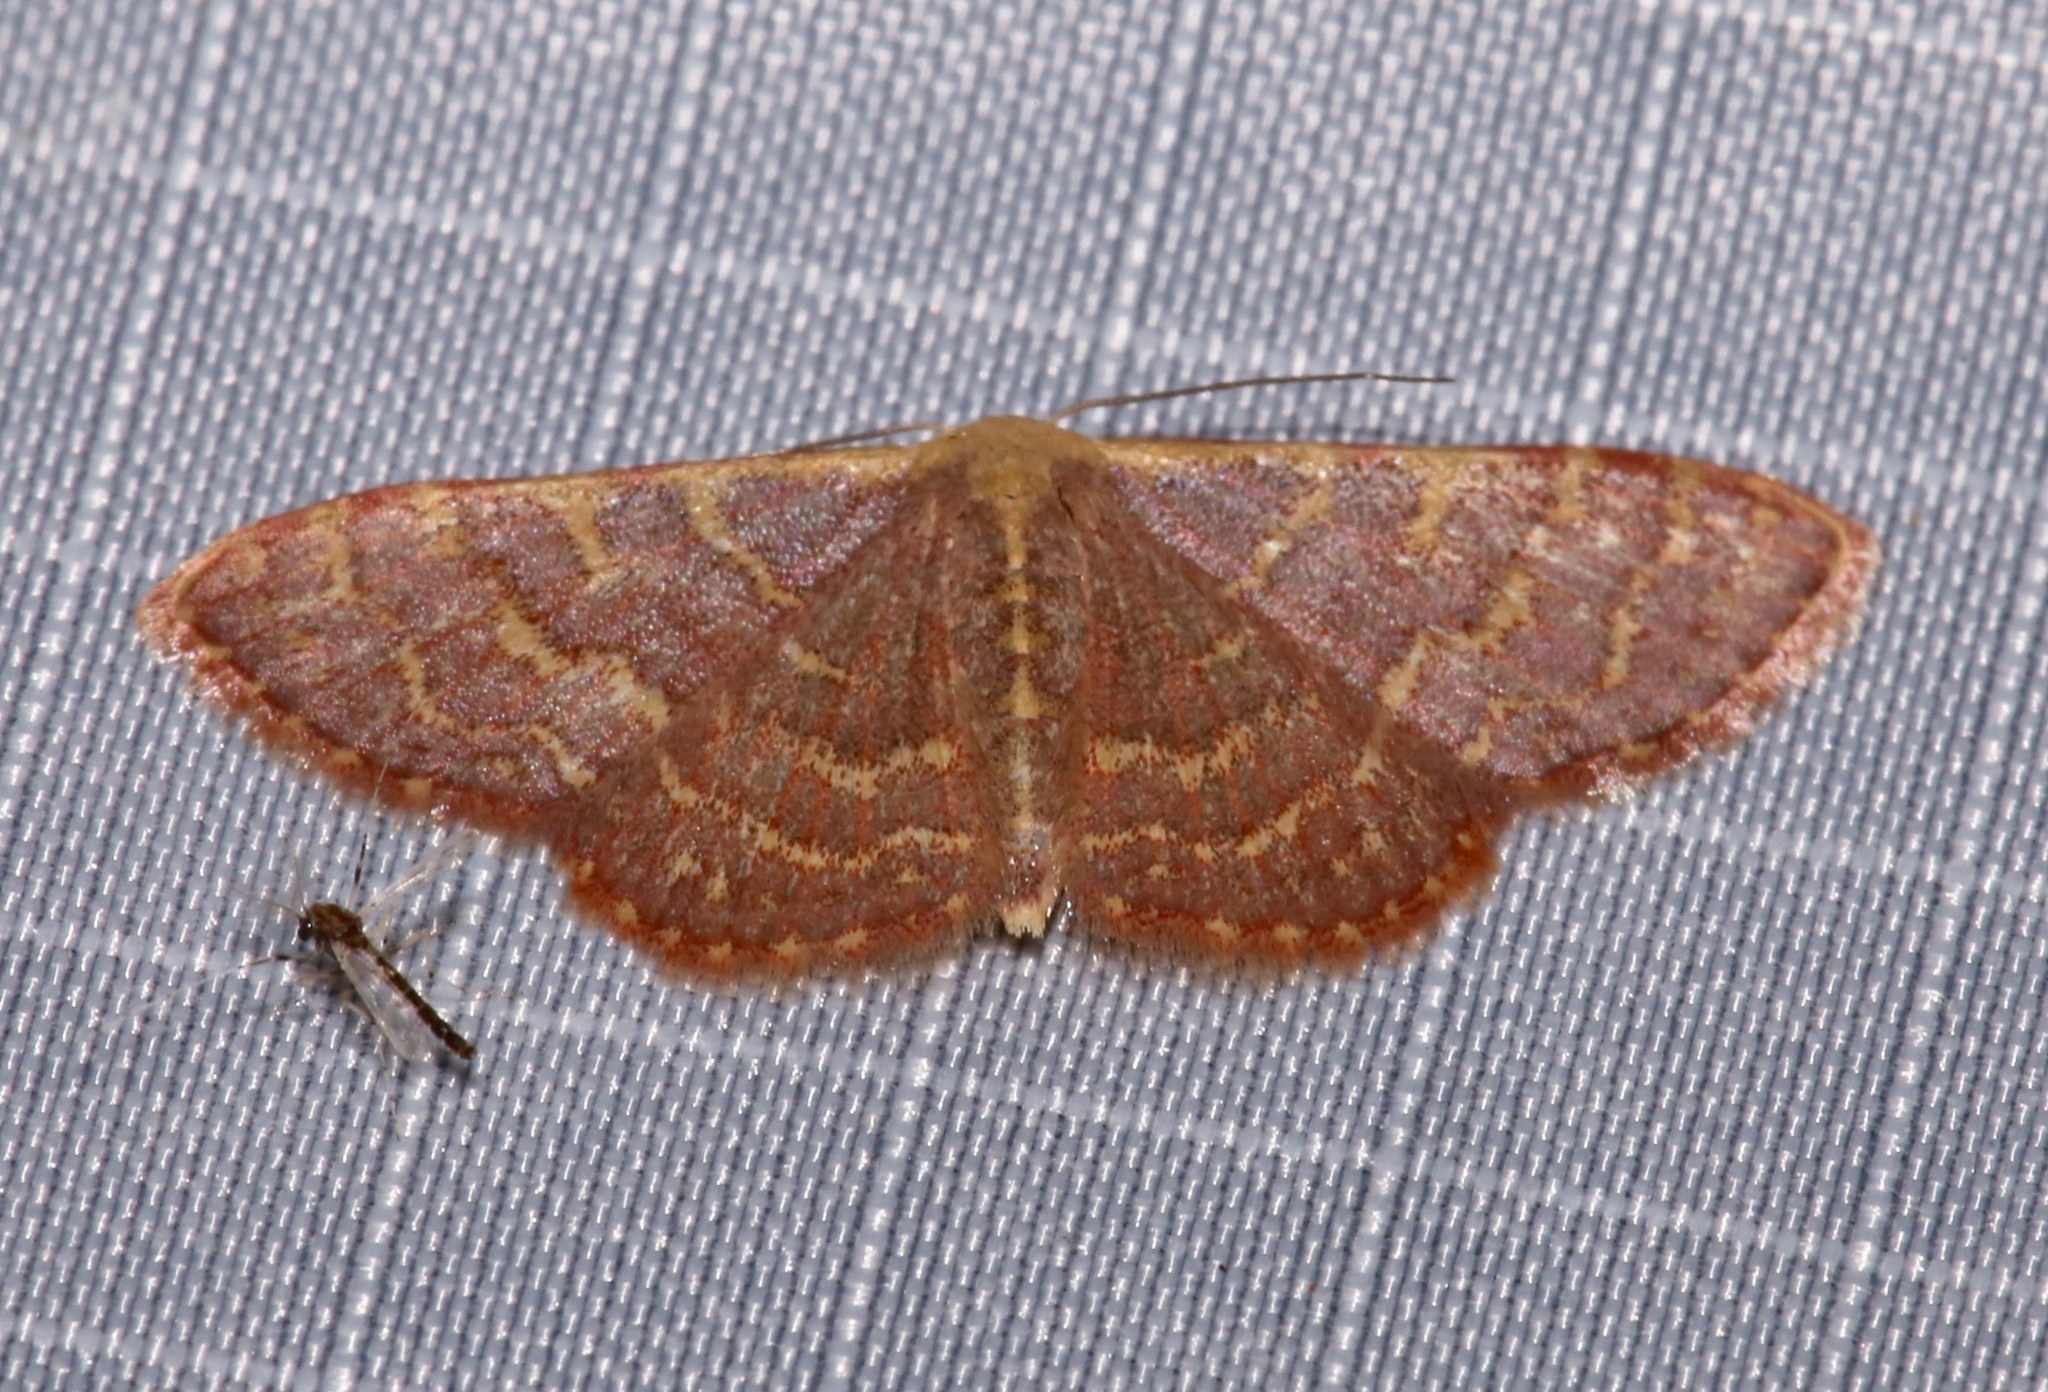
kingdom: Animalia
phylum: Arthropoda
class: Insecta
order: Lepidoptera
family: Geometridae
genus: Leptostales
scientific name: Leptostales pannaria
